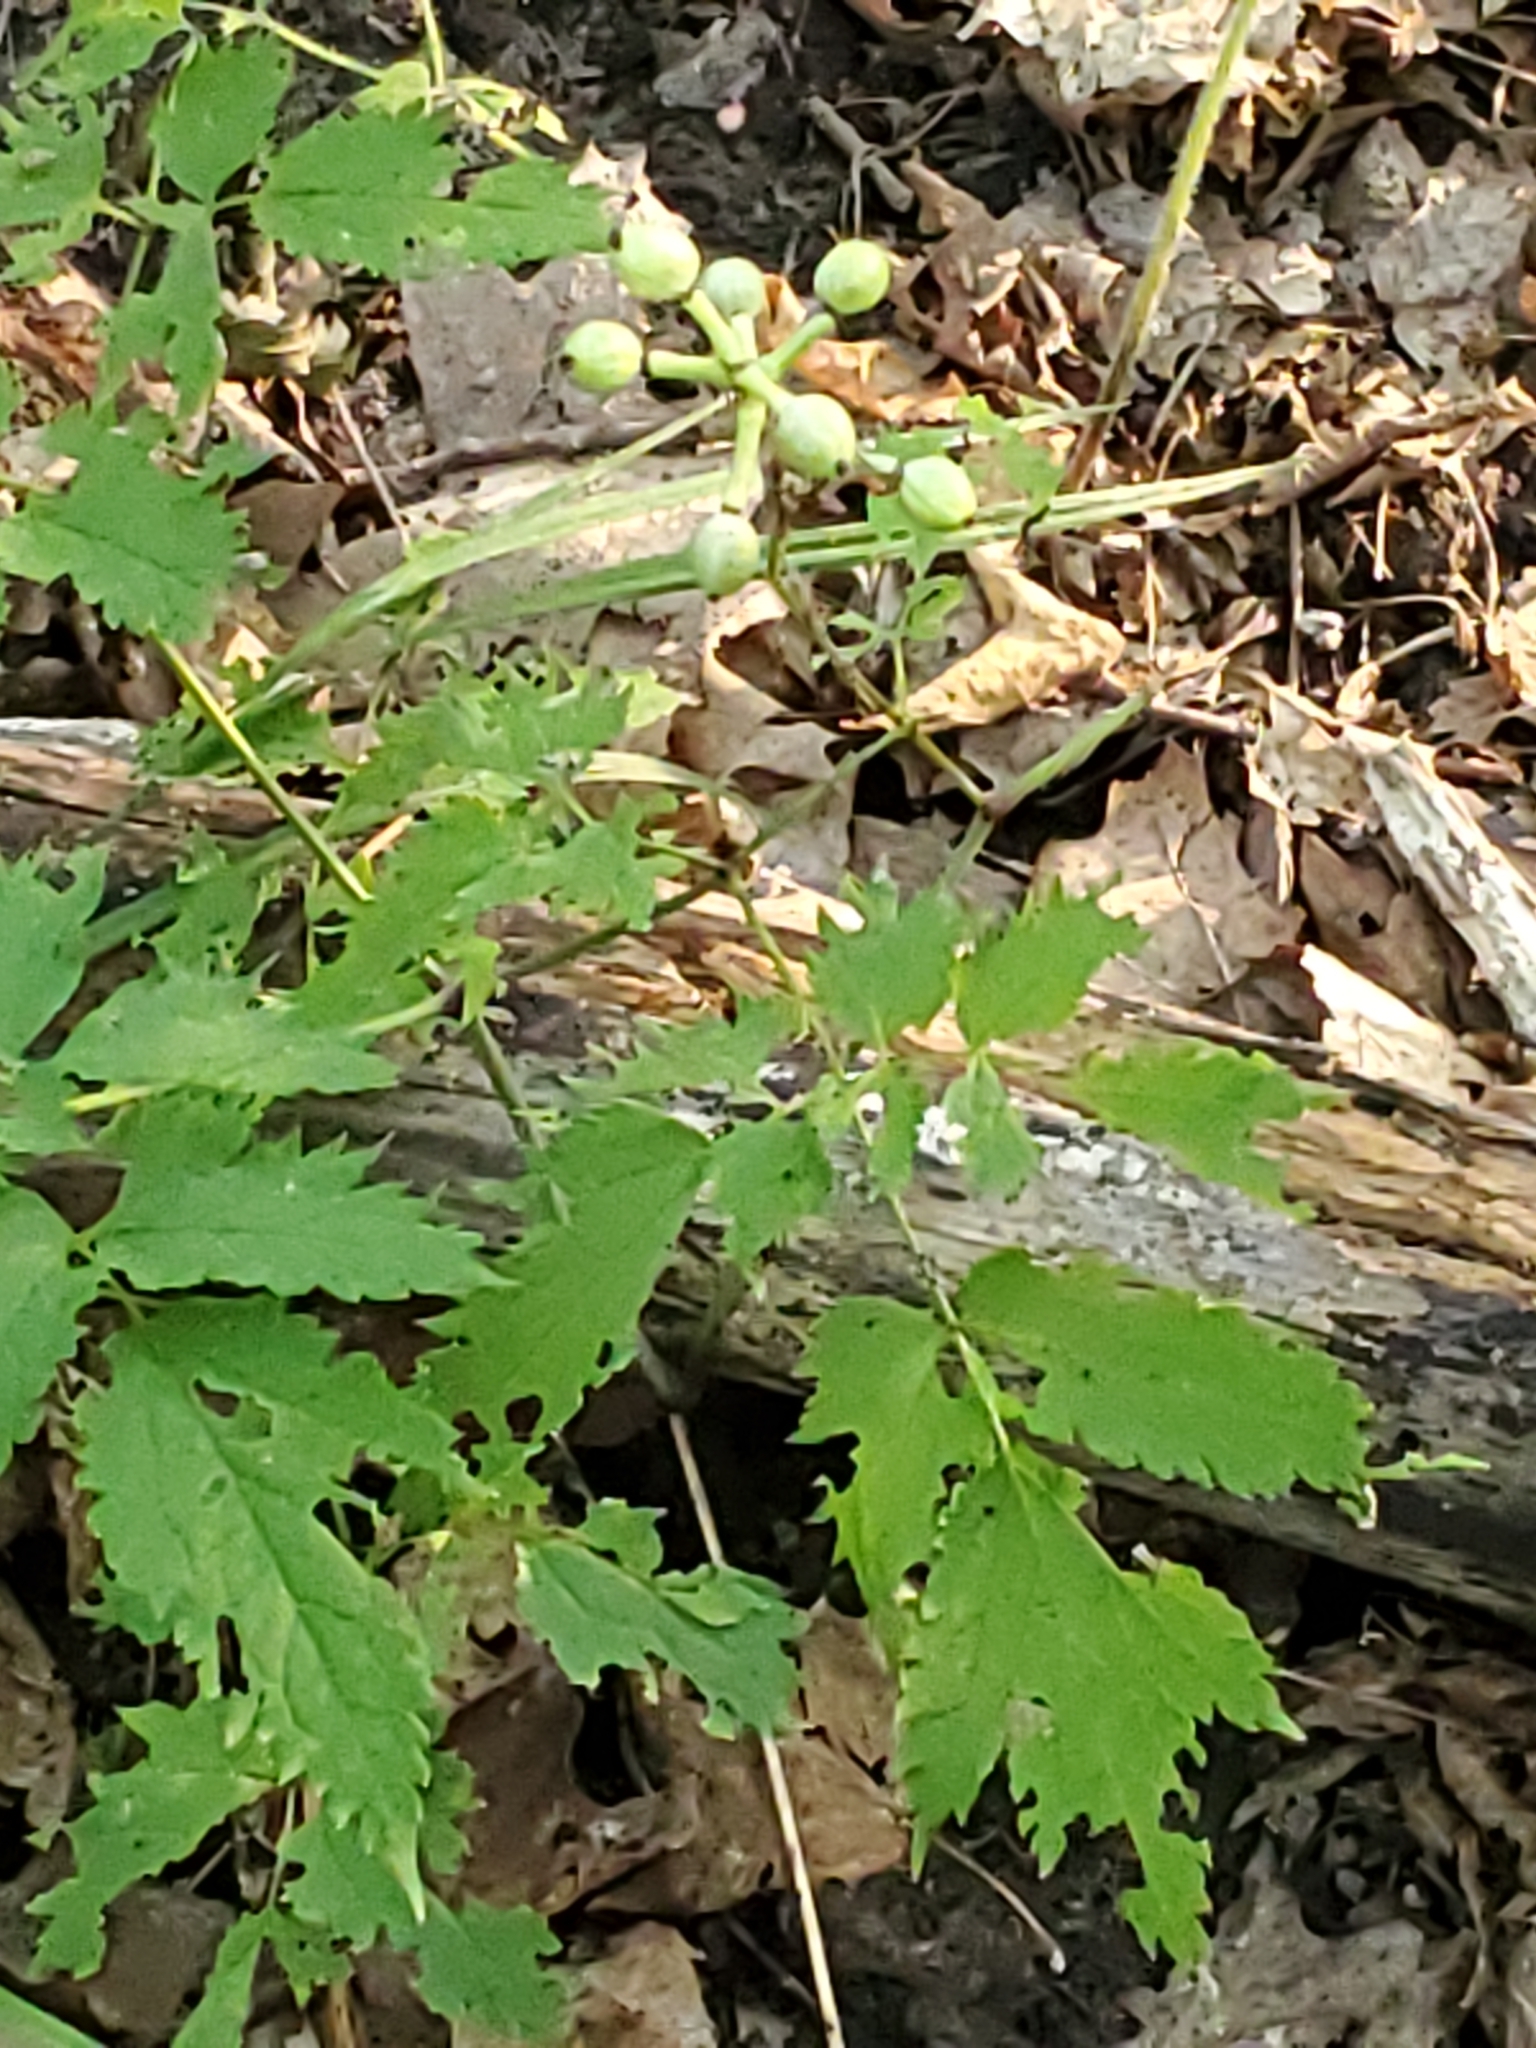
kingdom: Plantae
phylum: Tracheophyta
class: Magnoliopsida
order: Ranunculales
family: Ranunculaceae
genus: Actaea
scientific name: Actaea pachypoda
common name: Doll's-eyes
